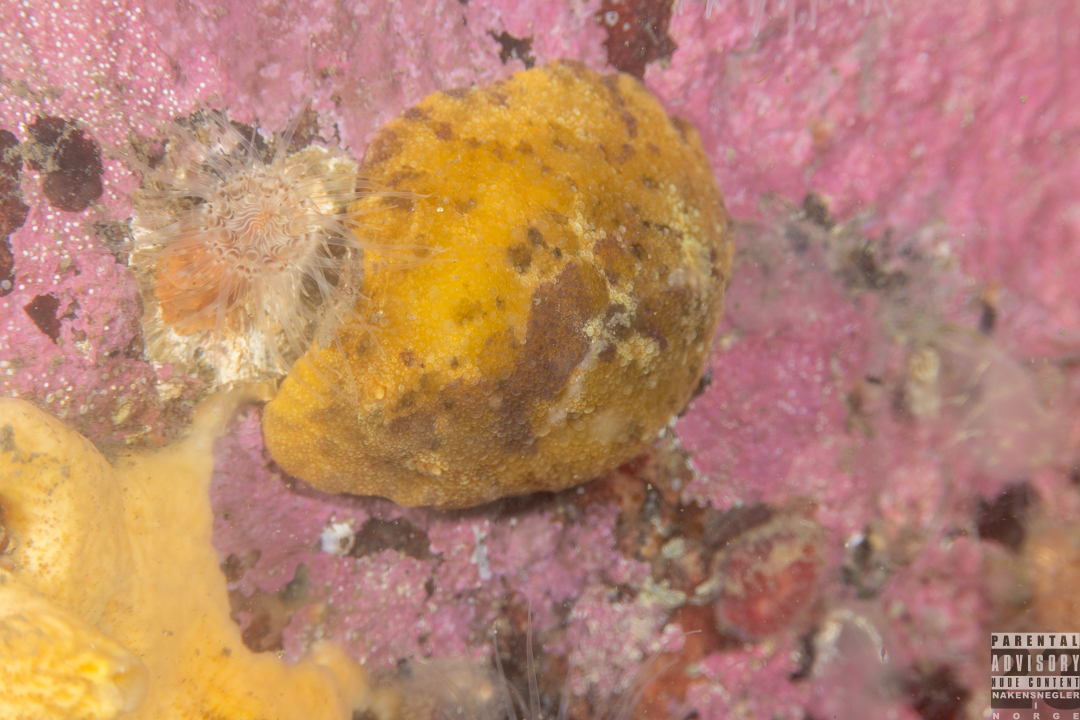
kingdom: Animalia
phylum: Mollusca
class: Gastropoda
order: Nudibranchia
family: Dorididae
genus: Doris
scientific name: Doris pseudoargus
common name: Sea lemon
